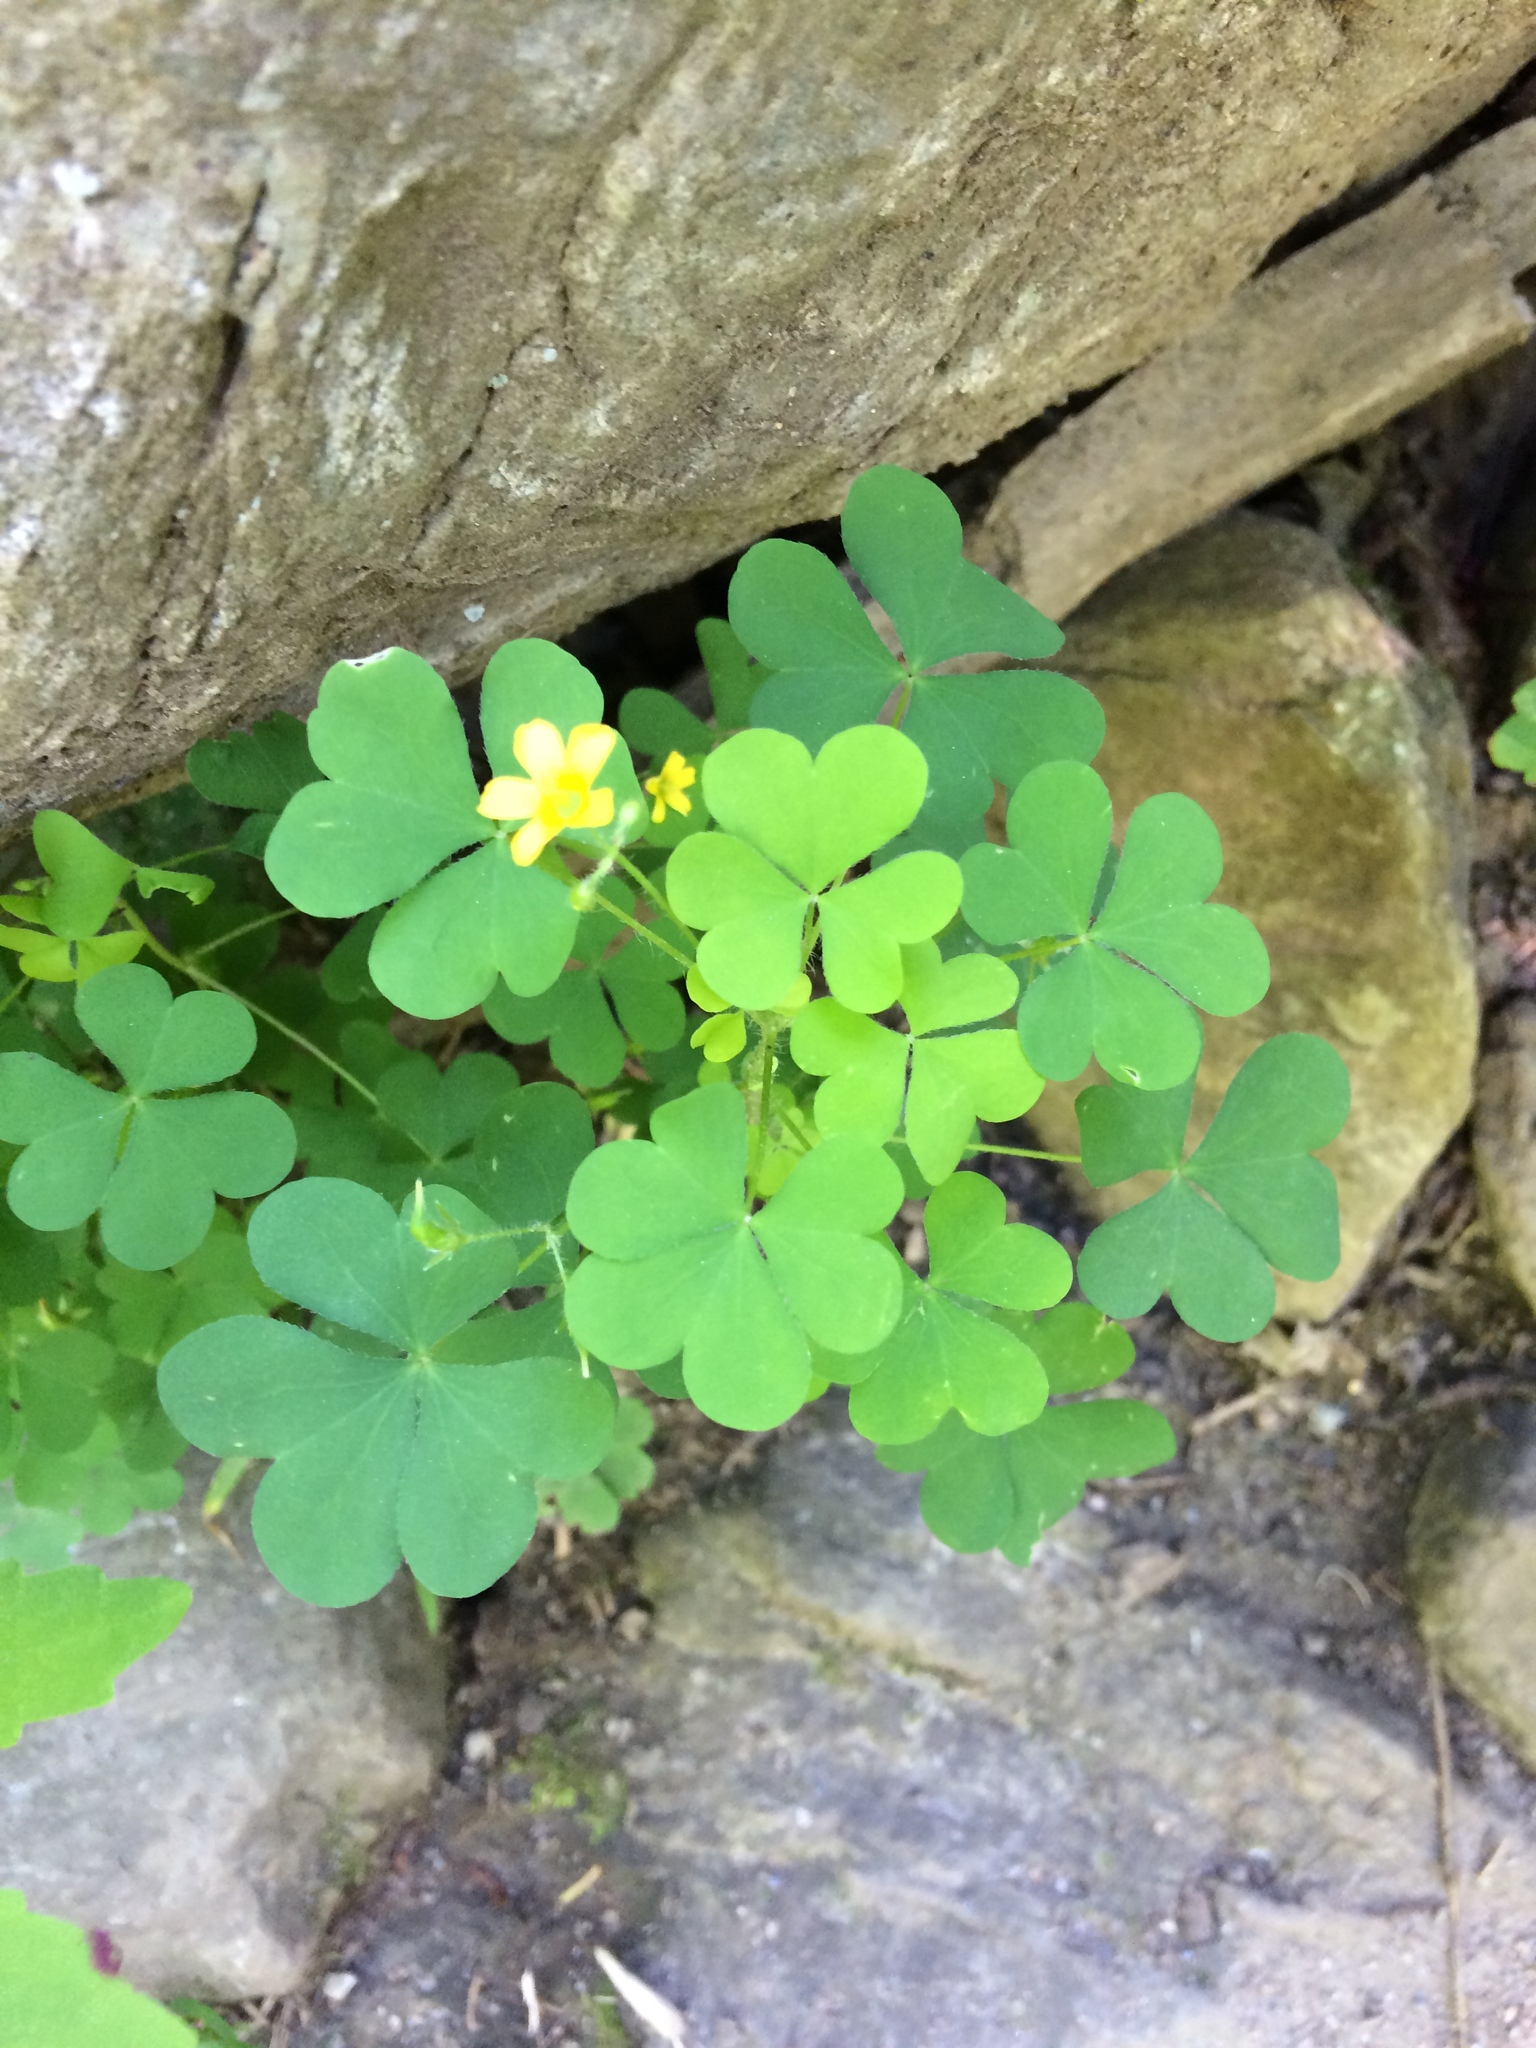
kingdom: Plantae
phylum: Tracheophyta
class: Magnoliopsida
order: Oxalidales
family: Oxalidaceae
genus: Oxalis
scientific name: Oxalis stricta
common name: Upright yellow-sorrel
